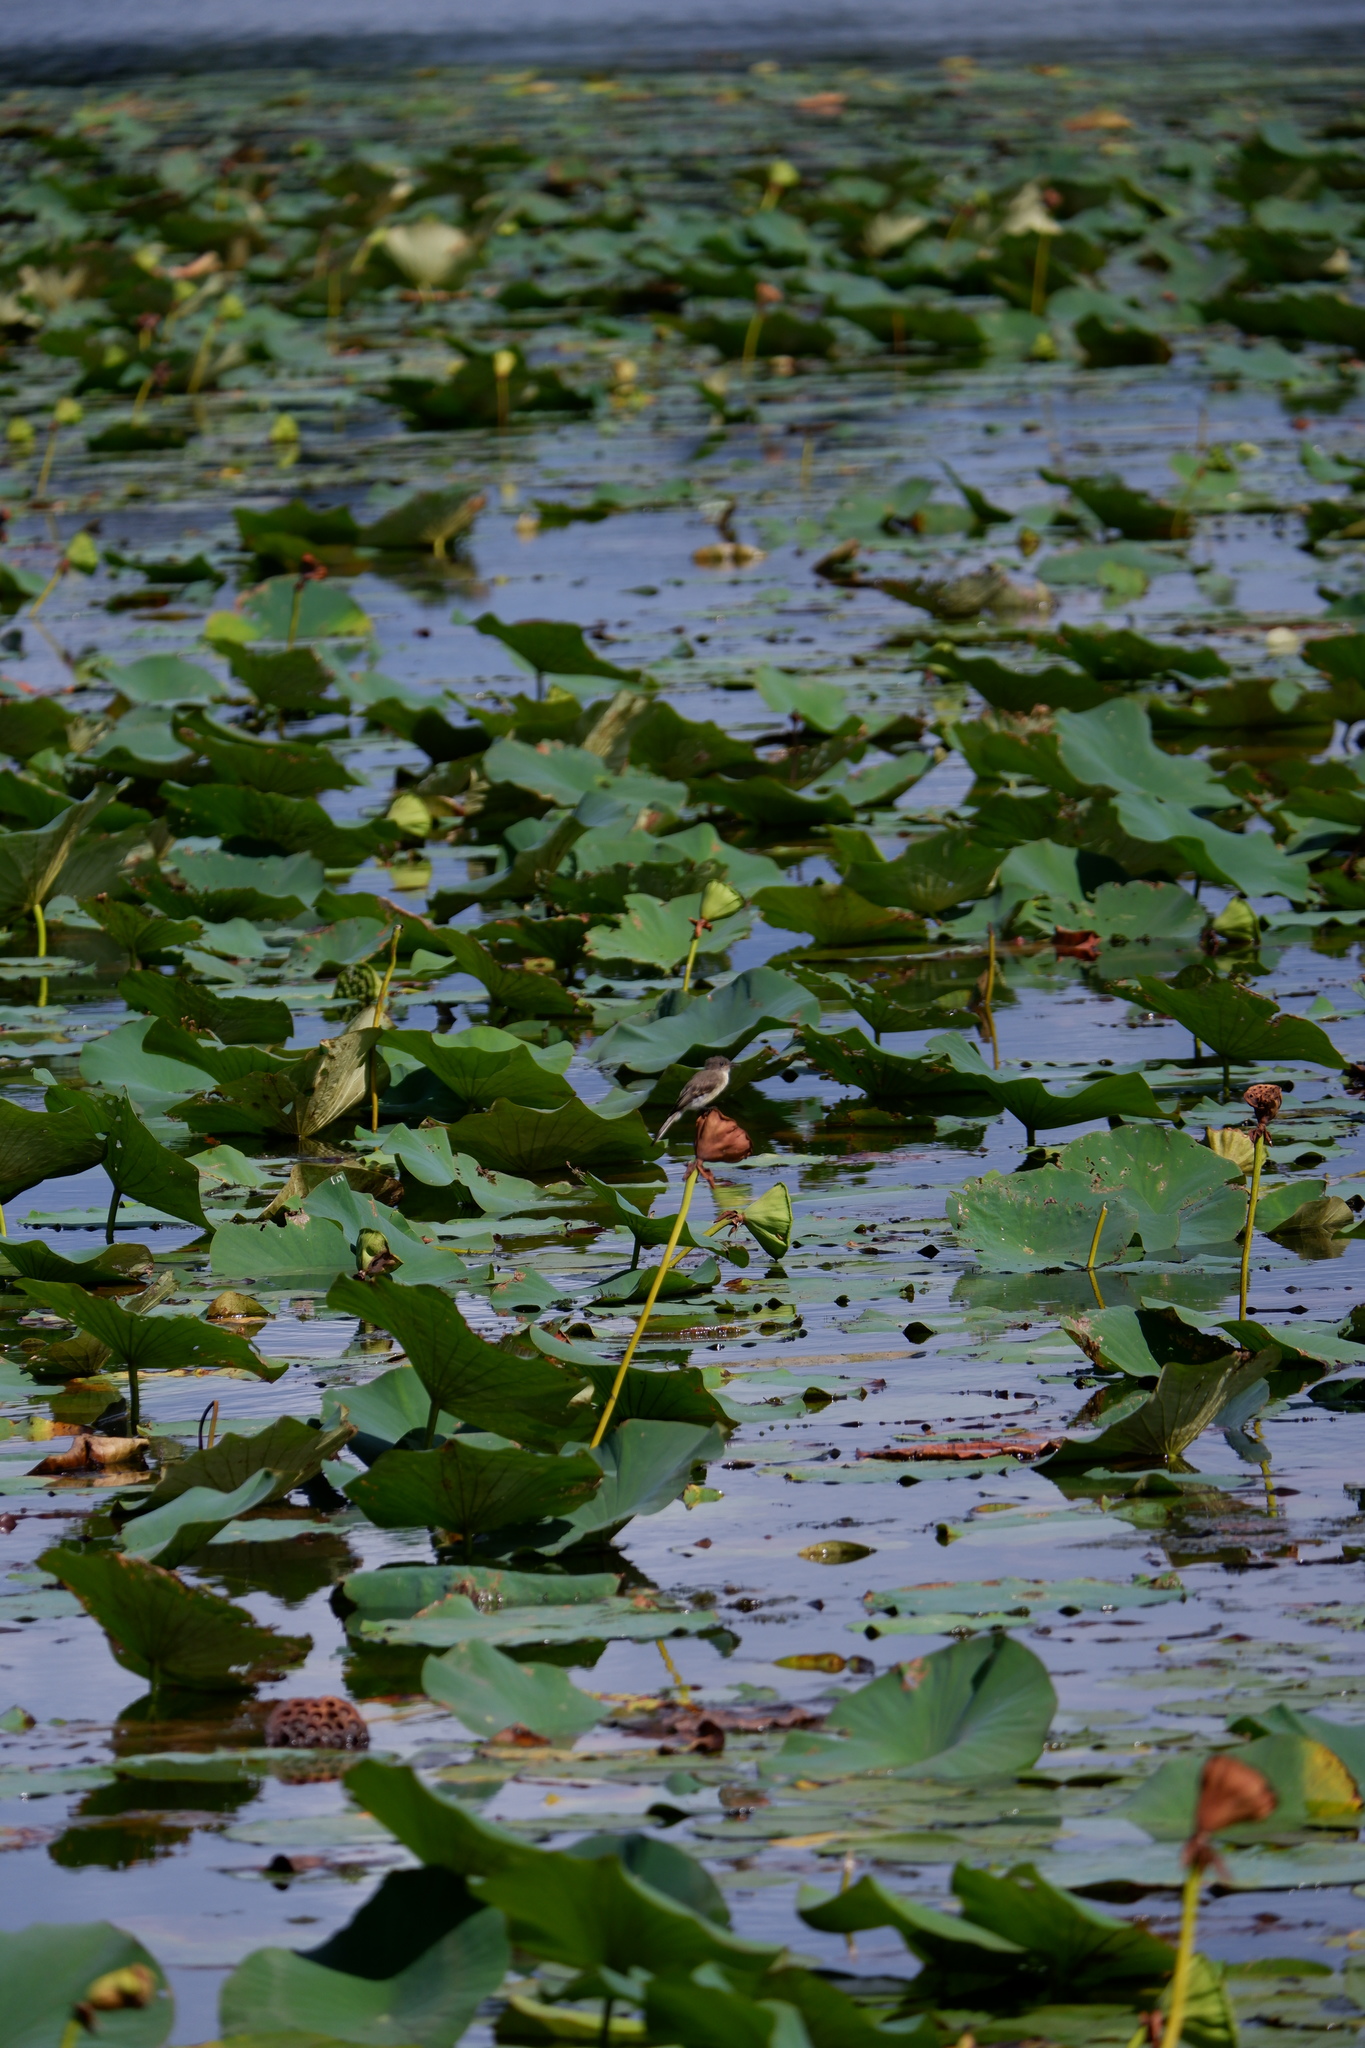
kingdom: Animalia
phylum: Chordata
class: Aves
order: Passeriformes
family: Tyrannidae
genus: Sayornis
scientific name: Sayornis phoebe
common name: Eastern phoebe
